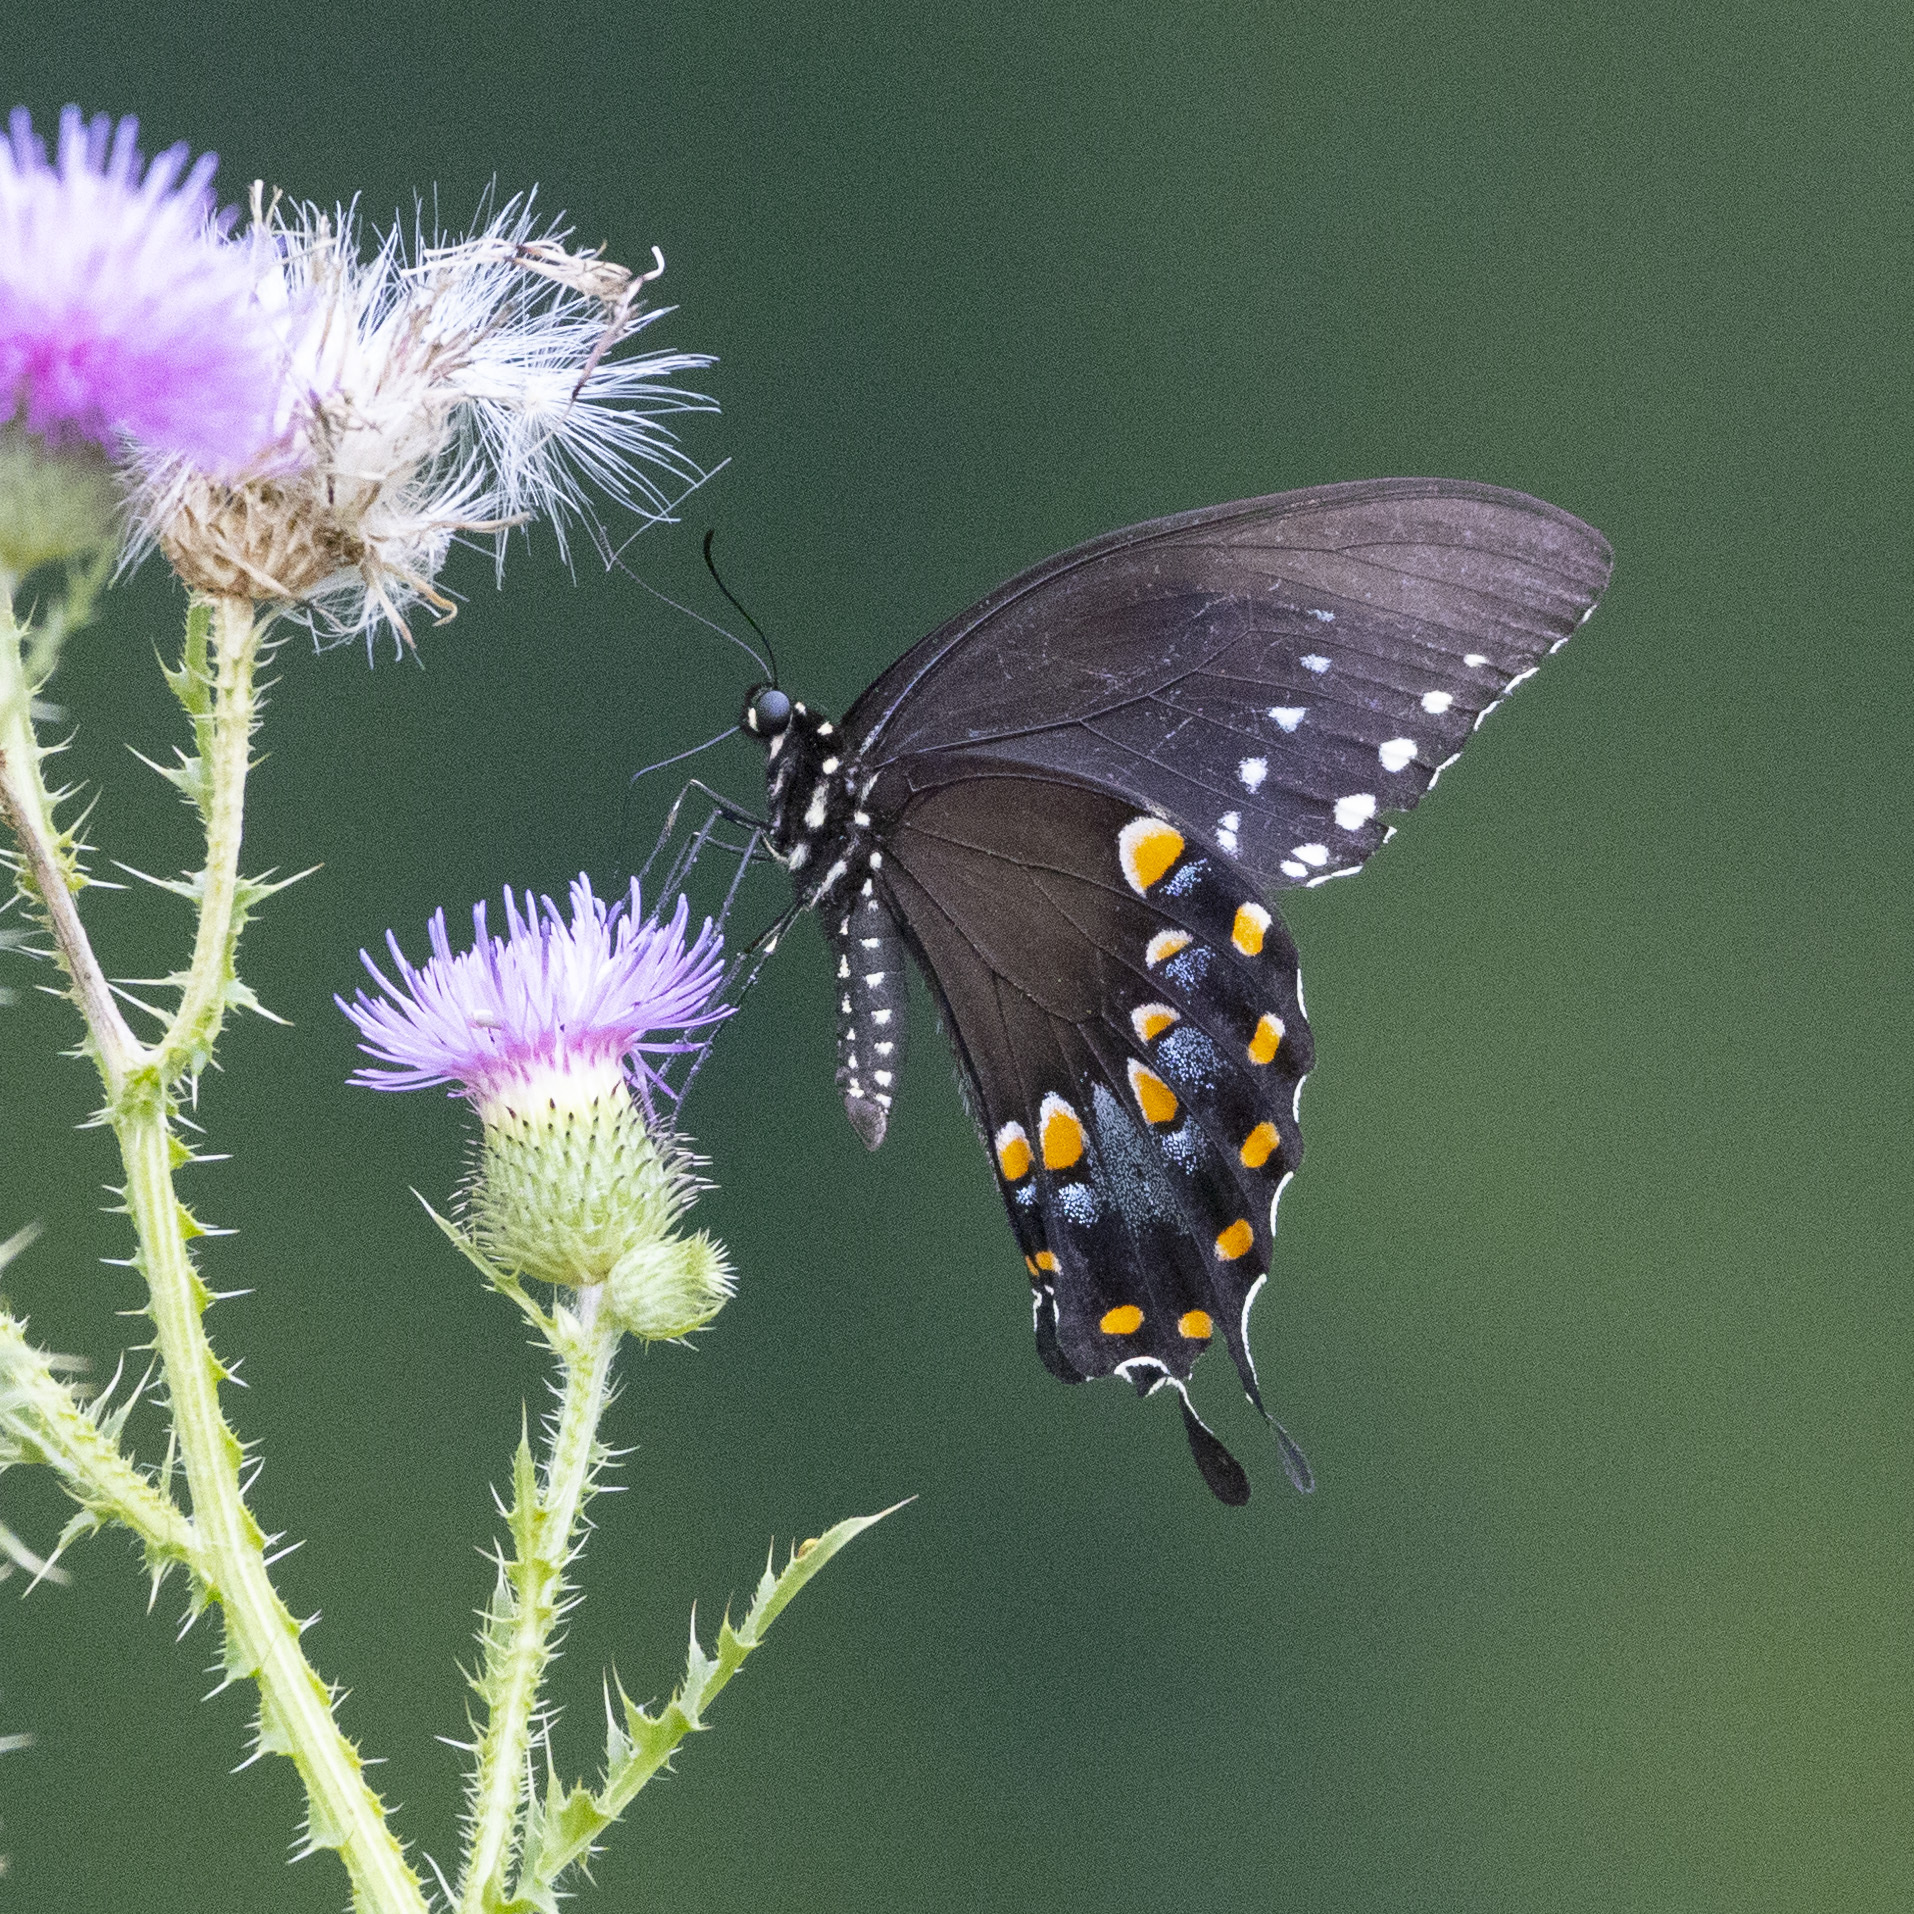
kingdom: Animalia
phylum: Arthropoda
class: Insecta
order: Lepidoptera
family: Papilionidae
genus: Papilio
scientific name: Papilio troilus
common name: Spicebush swallowtail
